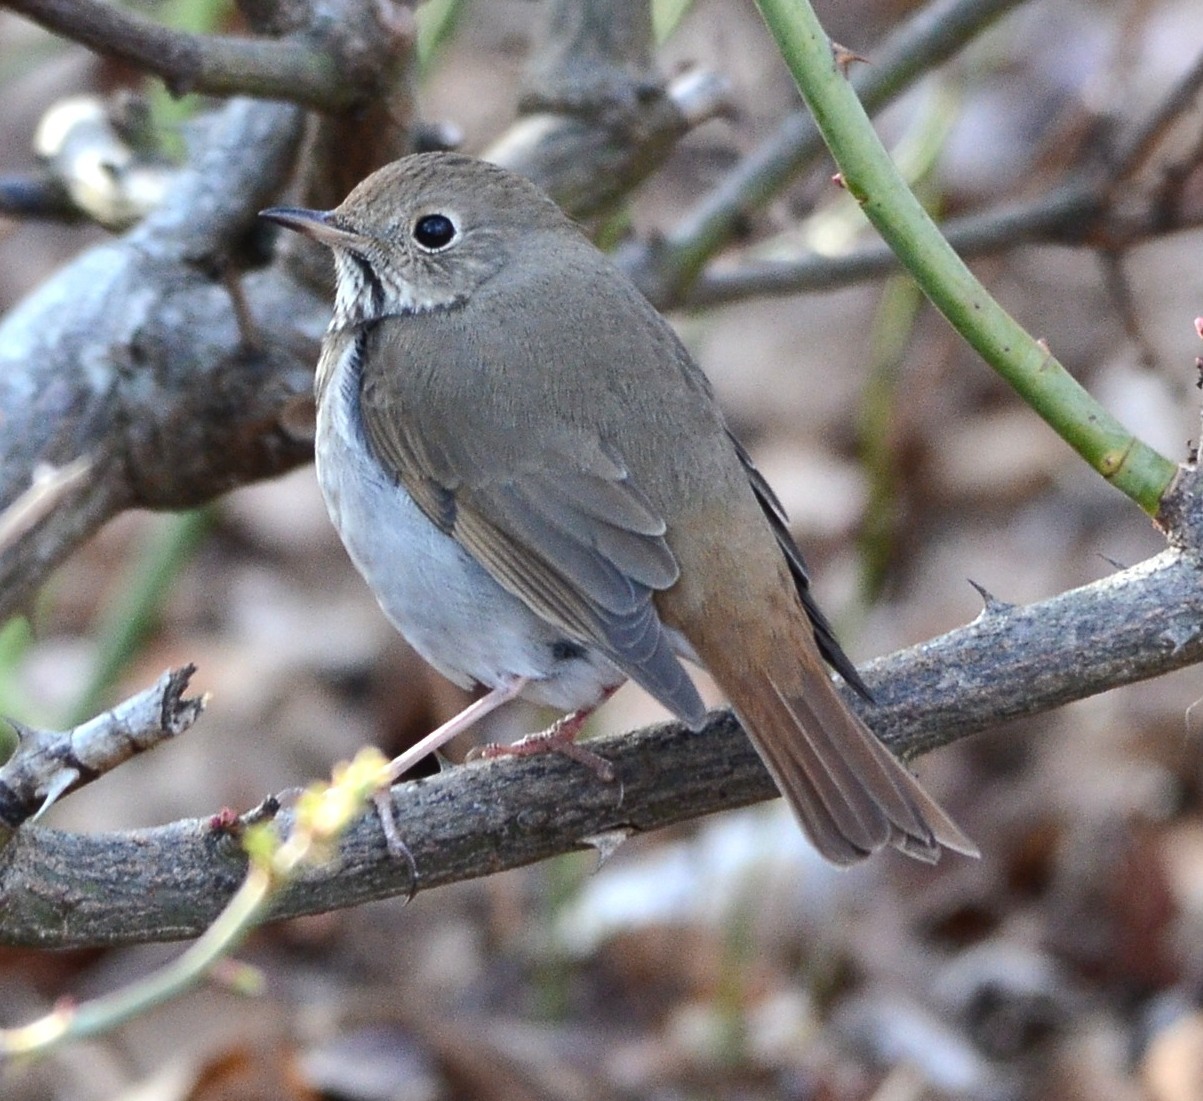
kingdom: Animalia
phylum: Chordata
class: Aves
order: Passeriformes
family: Turdidae
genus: Catharus
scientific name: Catharus guttatus
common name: Hermit thrush
